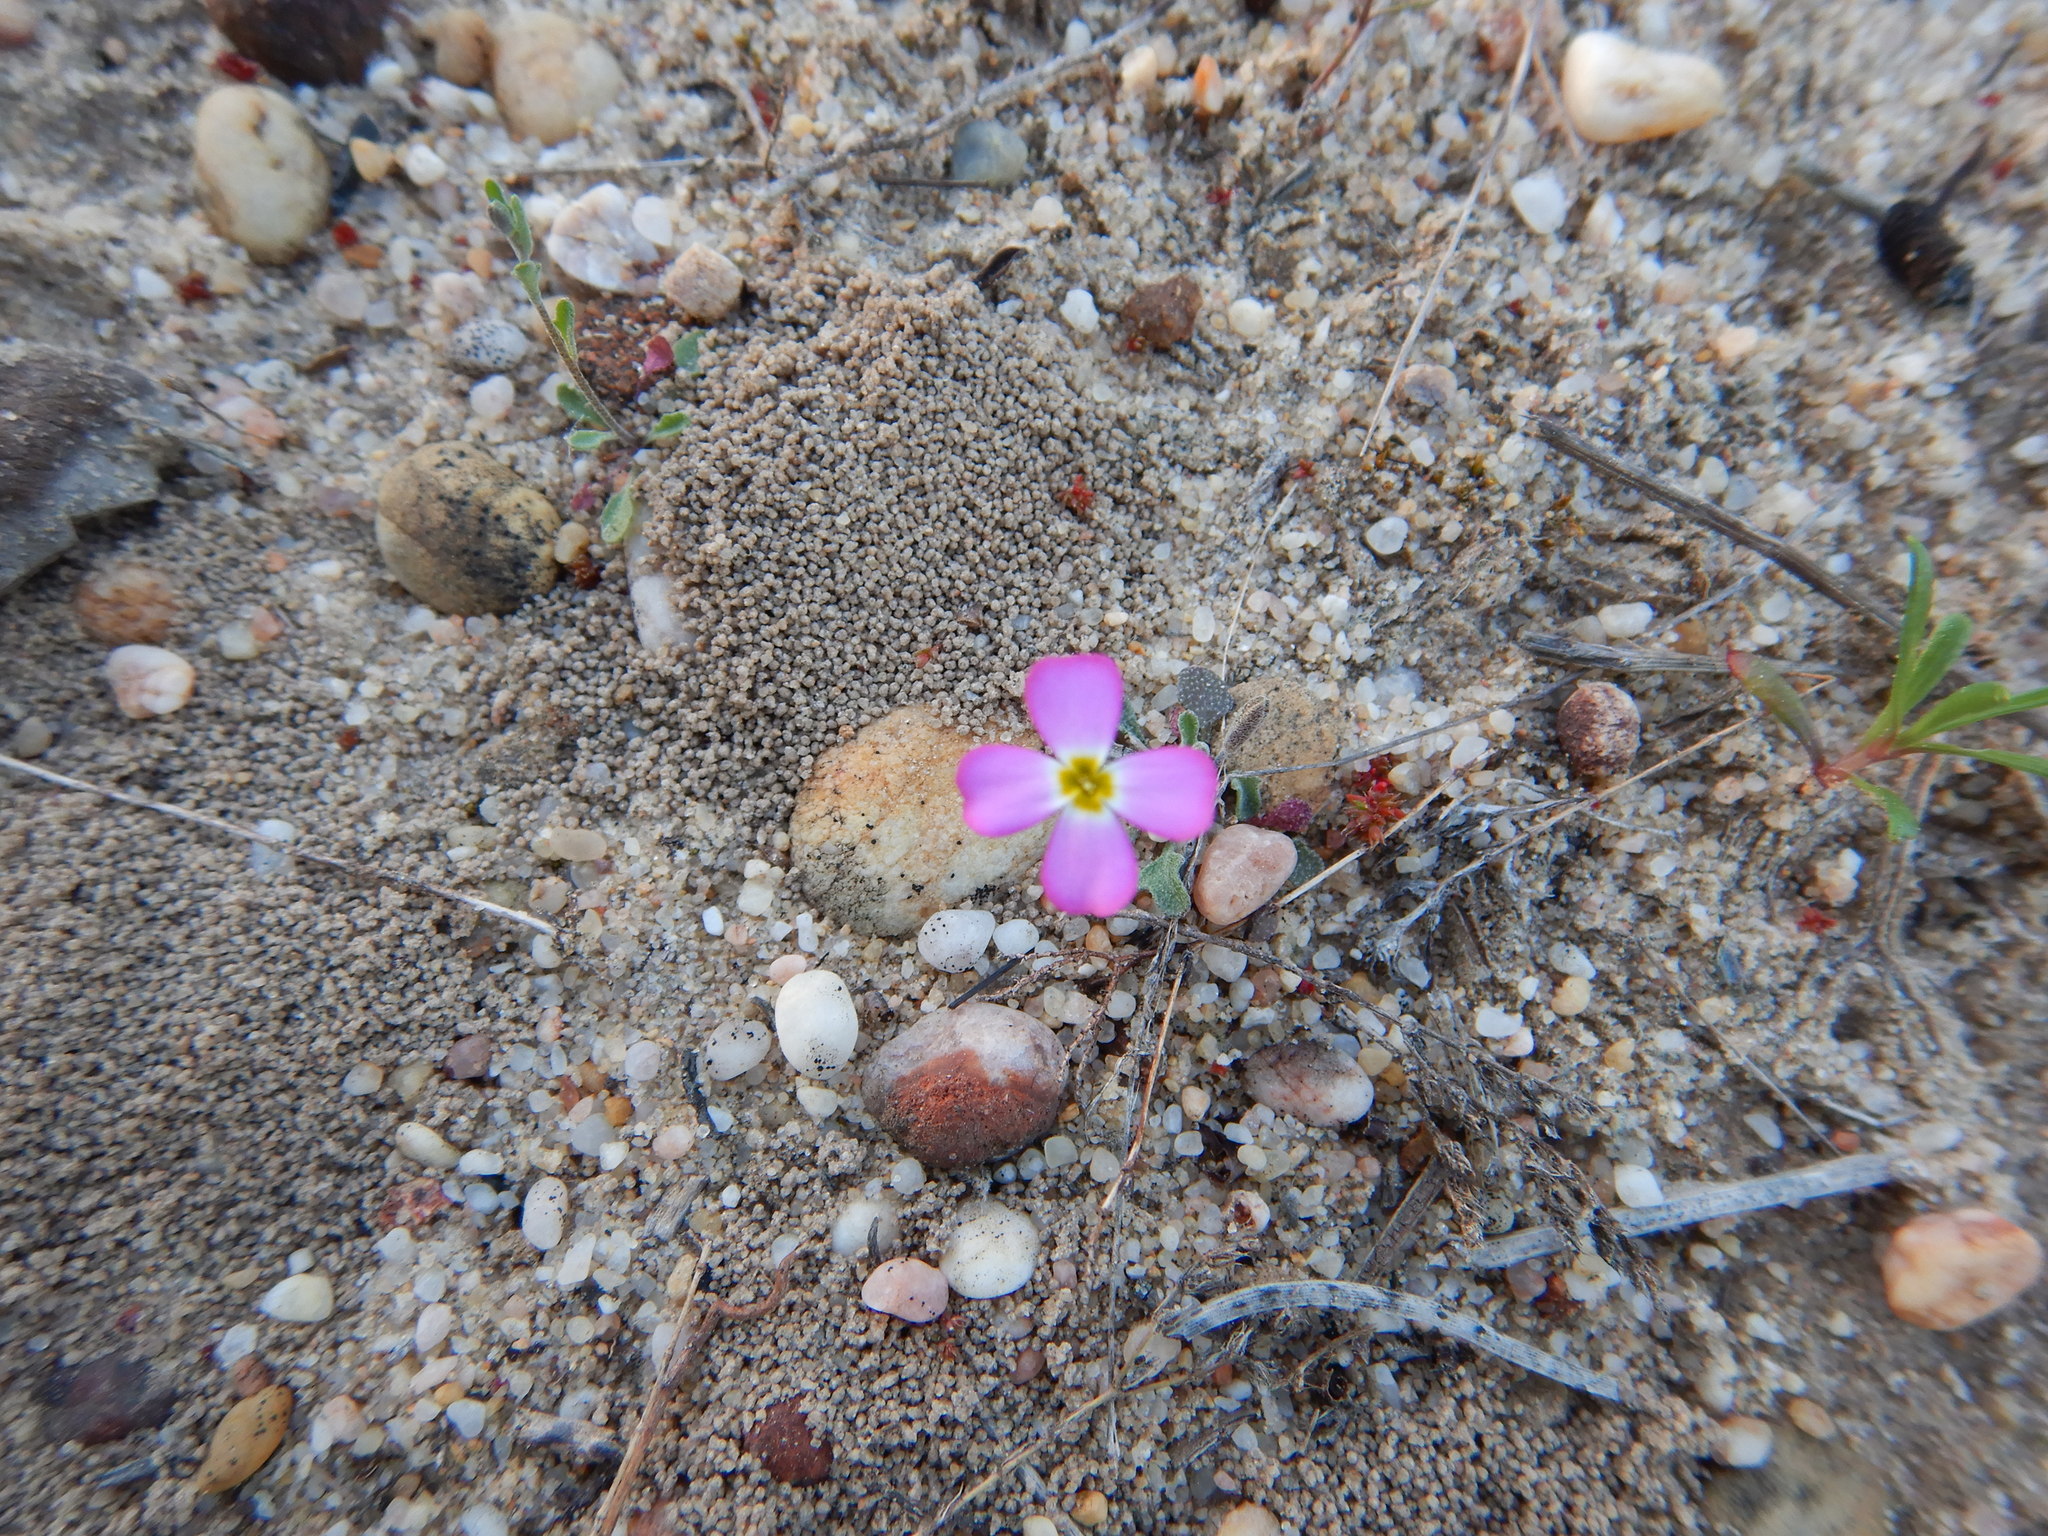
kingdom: Plantae
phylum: Tracheophyta
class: Magnoliopsida
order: Brassicales
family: Brassicaceae
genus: Marcuskochia
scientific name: Marcuskochia triloba
